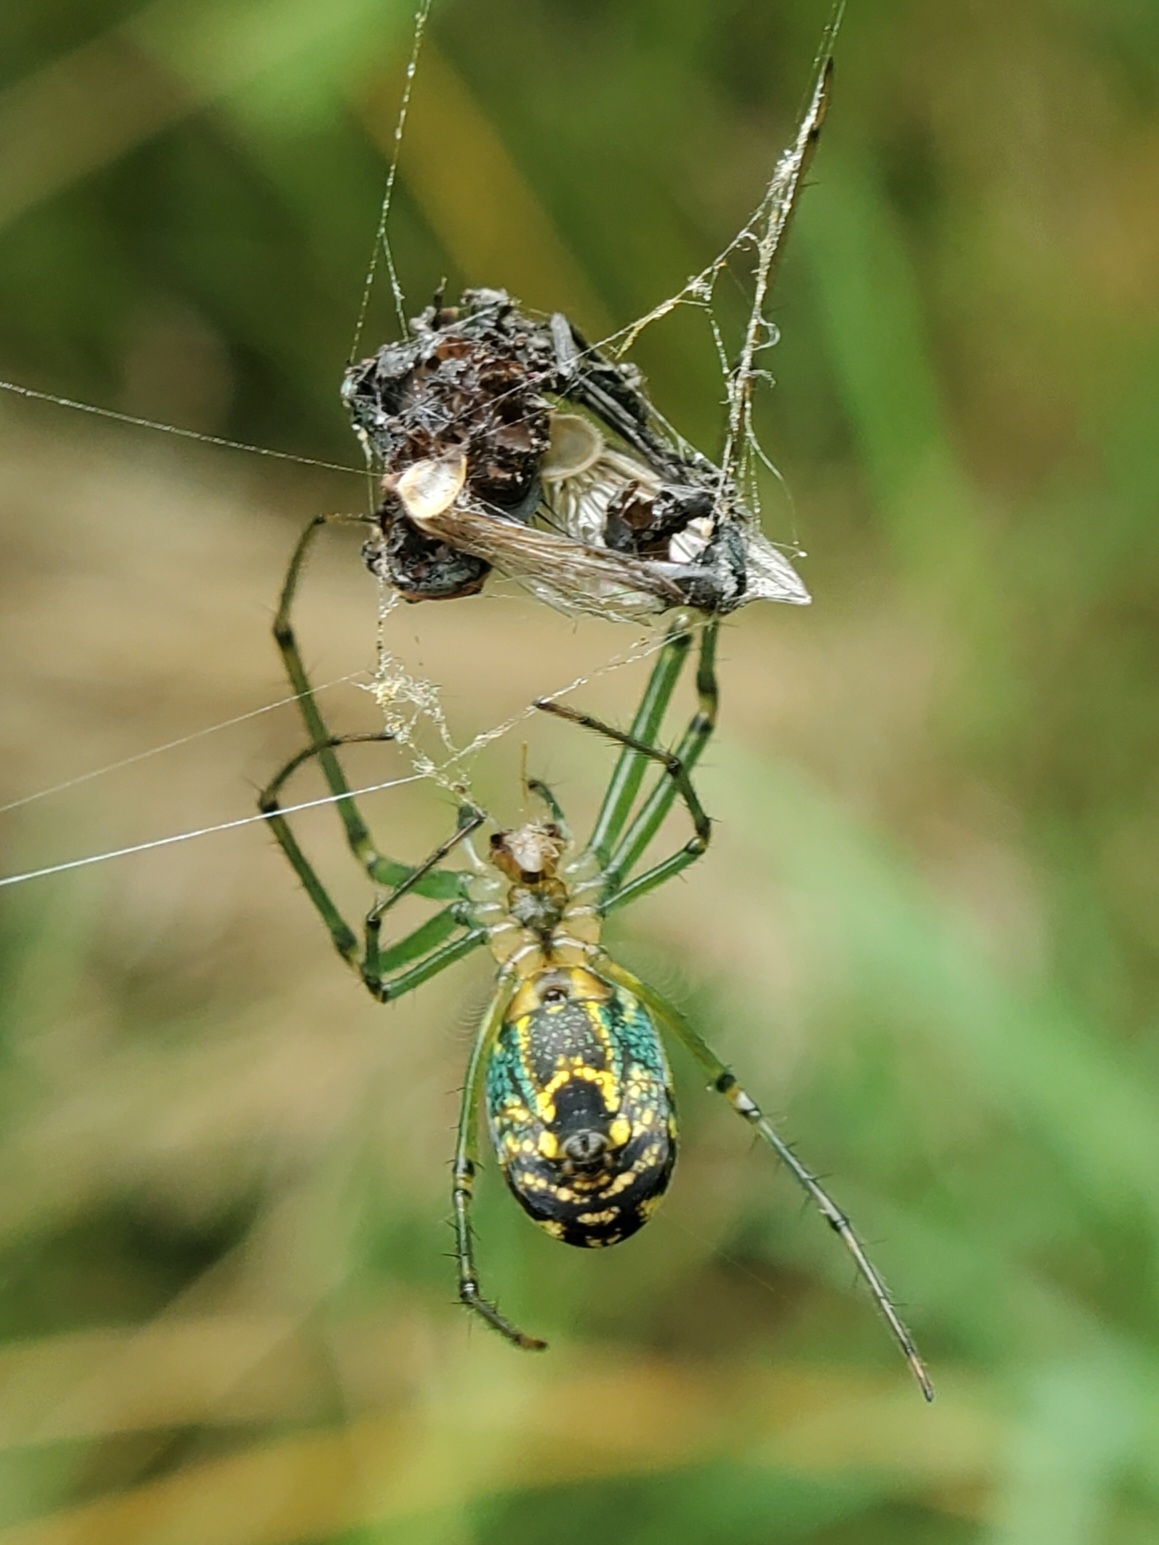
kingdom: Animalia
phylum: Arthropoda
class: Arachnida
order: Araneae
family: Tetragnathidae
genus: Leucauge
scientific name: Leucauge venusta
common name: Longjawed orb weavers
